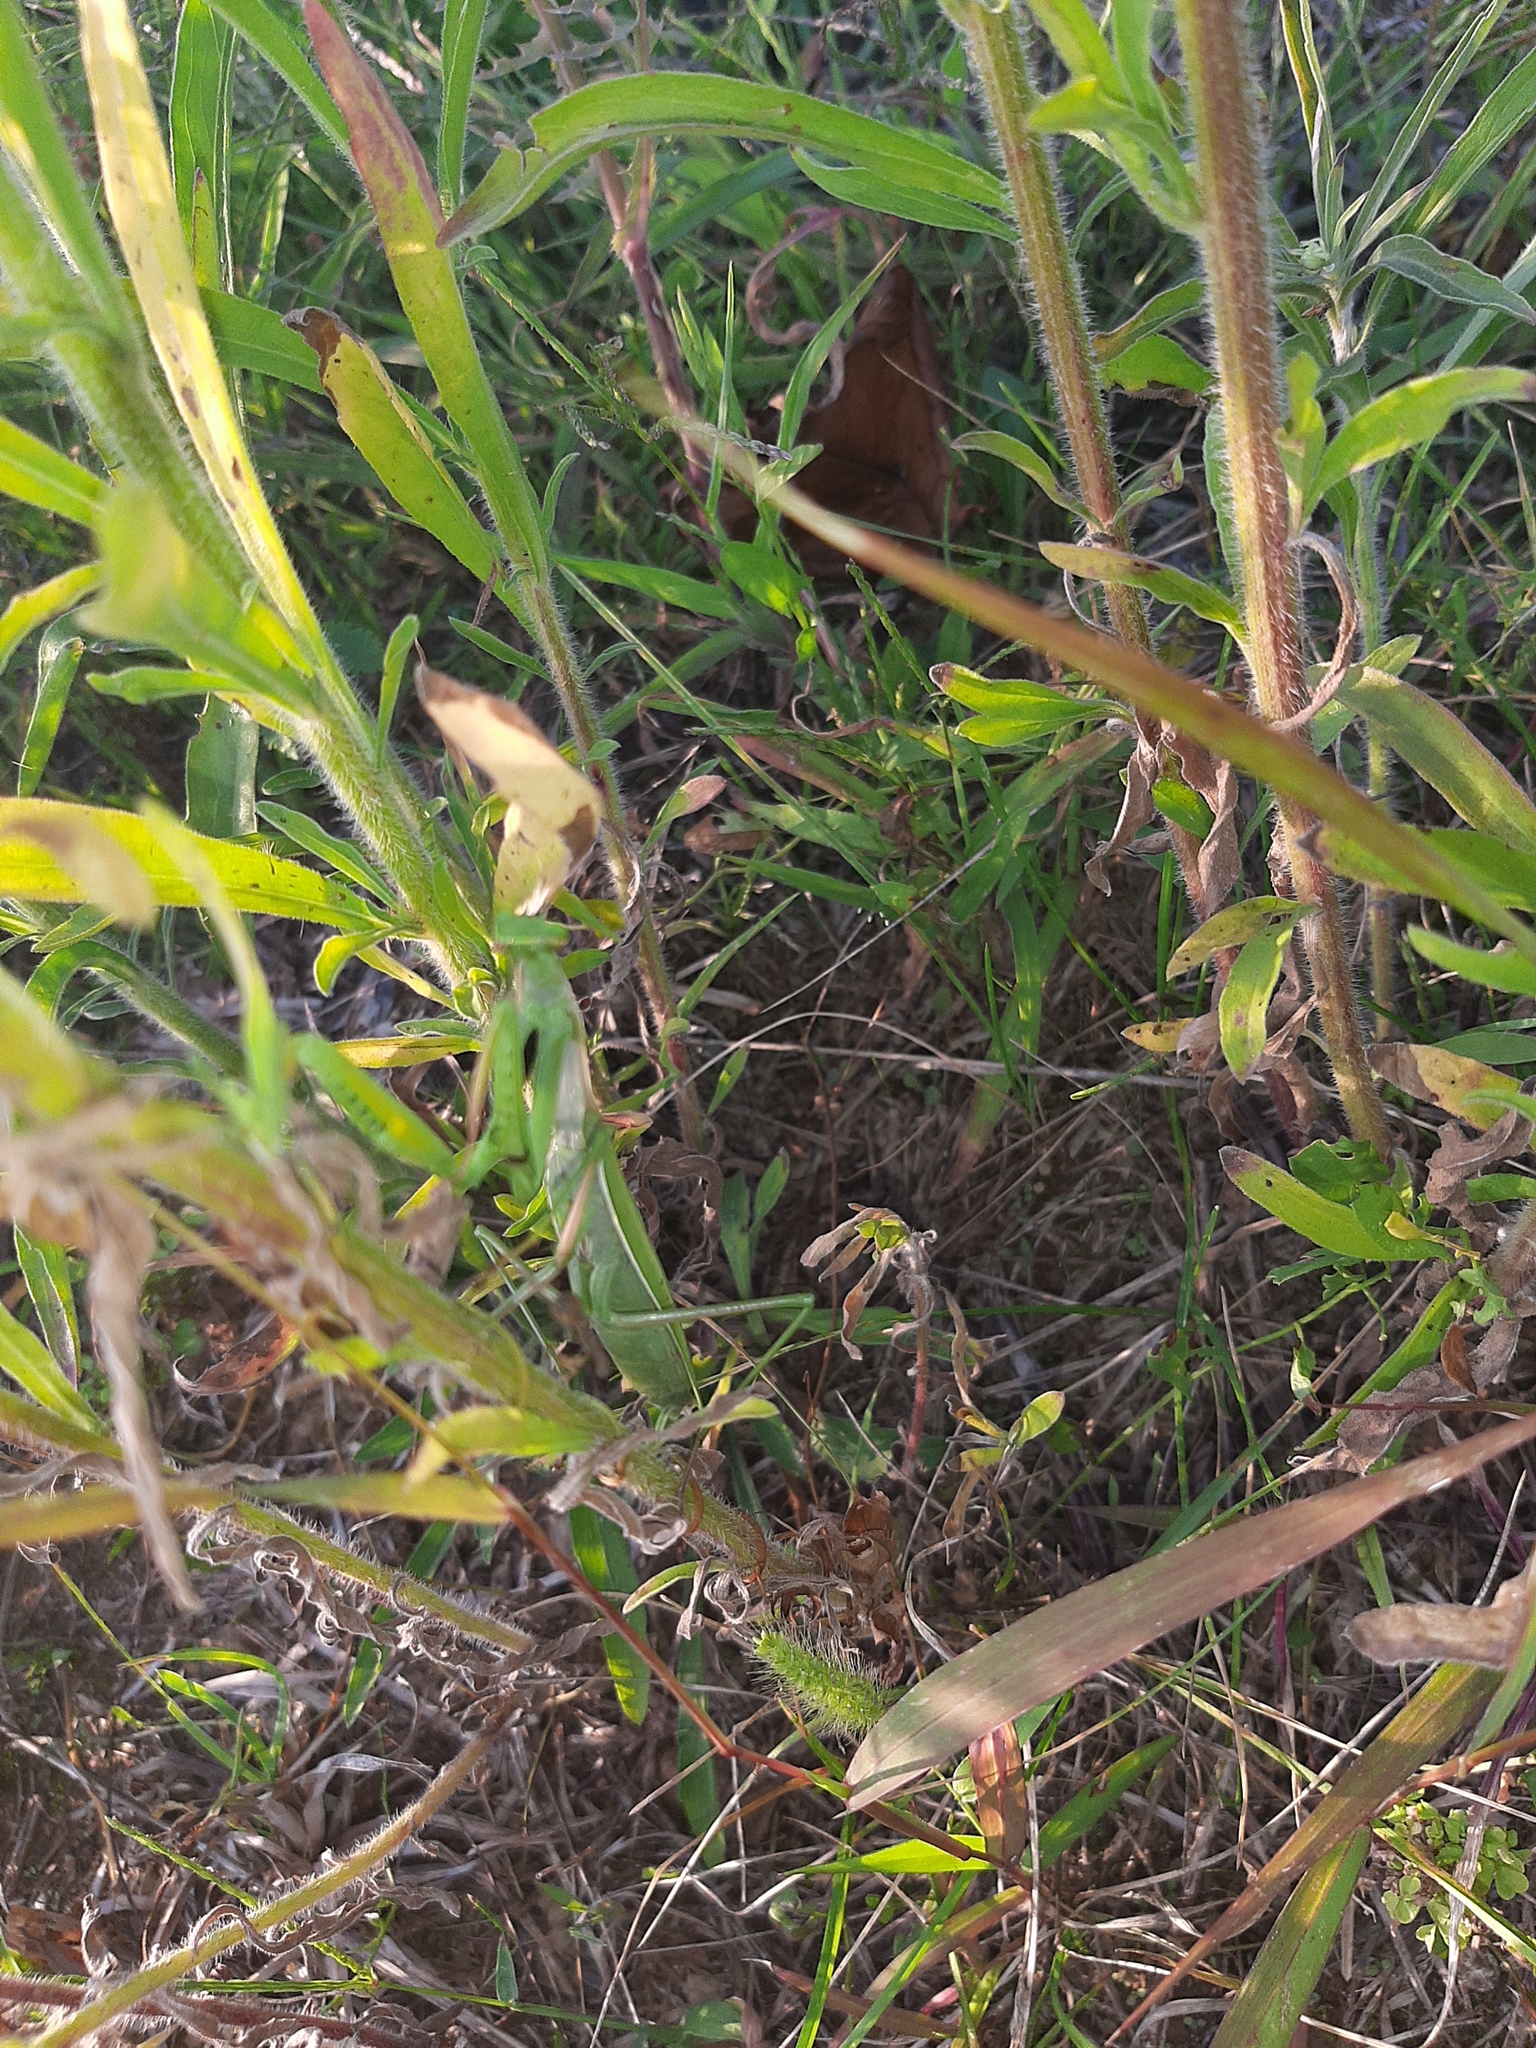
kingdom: Animalia
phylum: Arthropoda
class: Insecta
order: Mantodea
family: Mantidae
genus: Mantis
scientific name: Mantis religiosa
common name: Praying mantis
